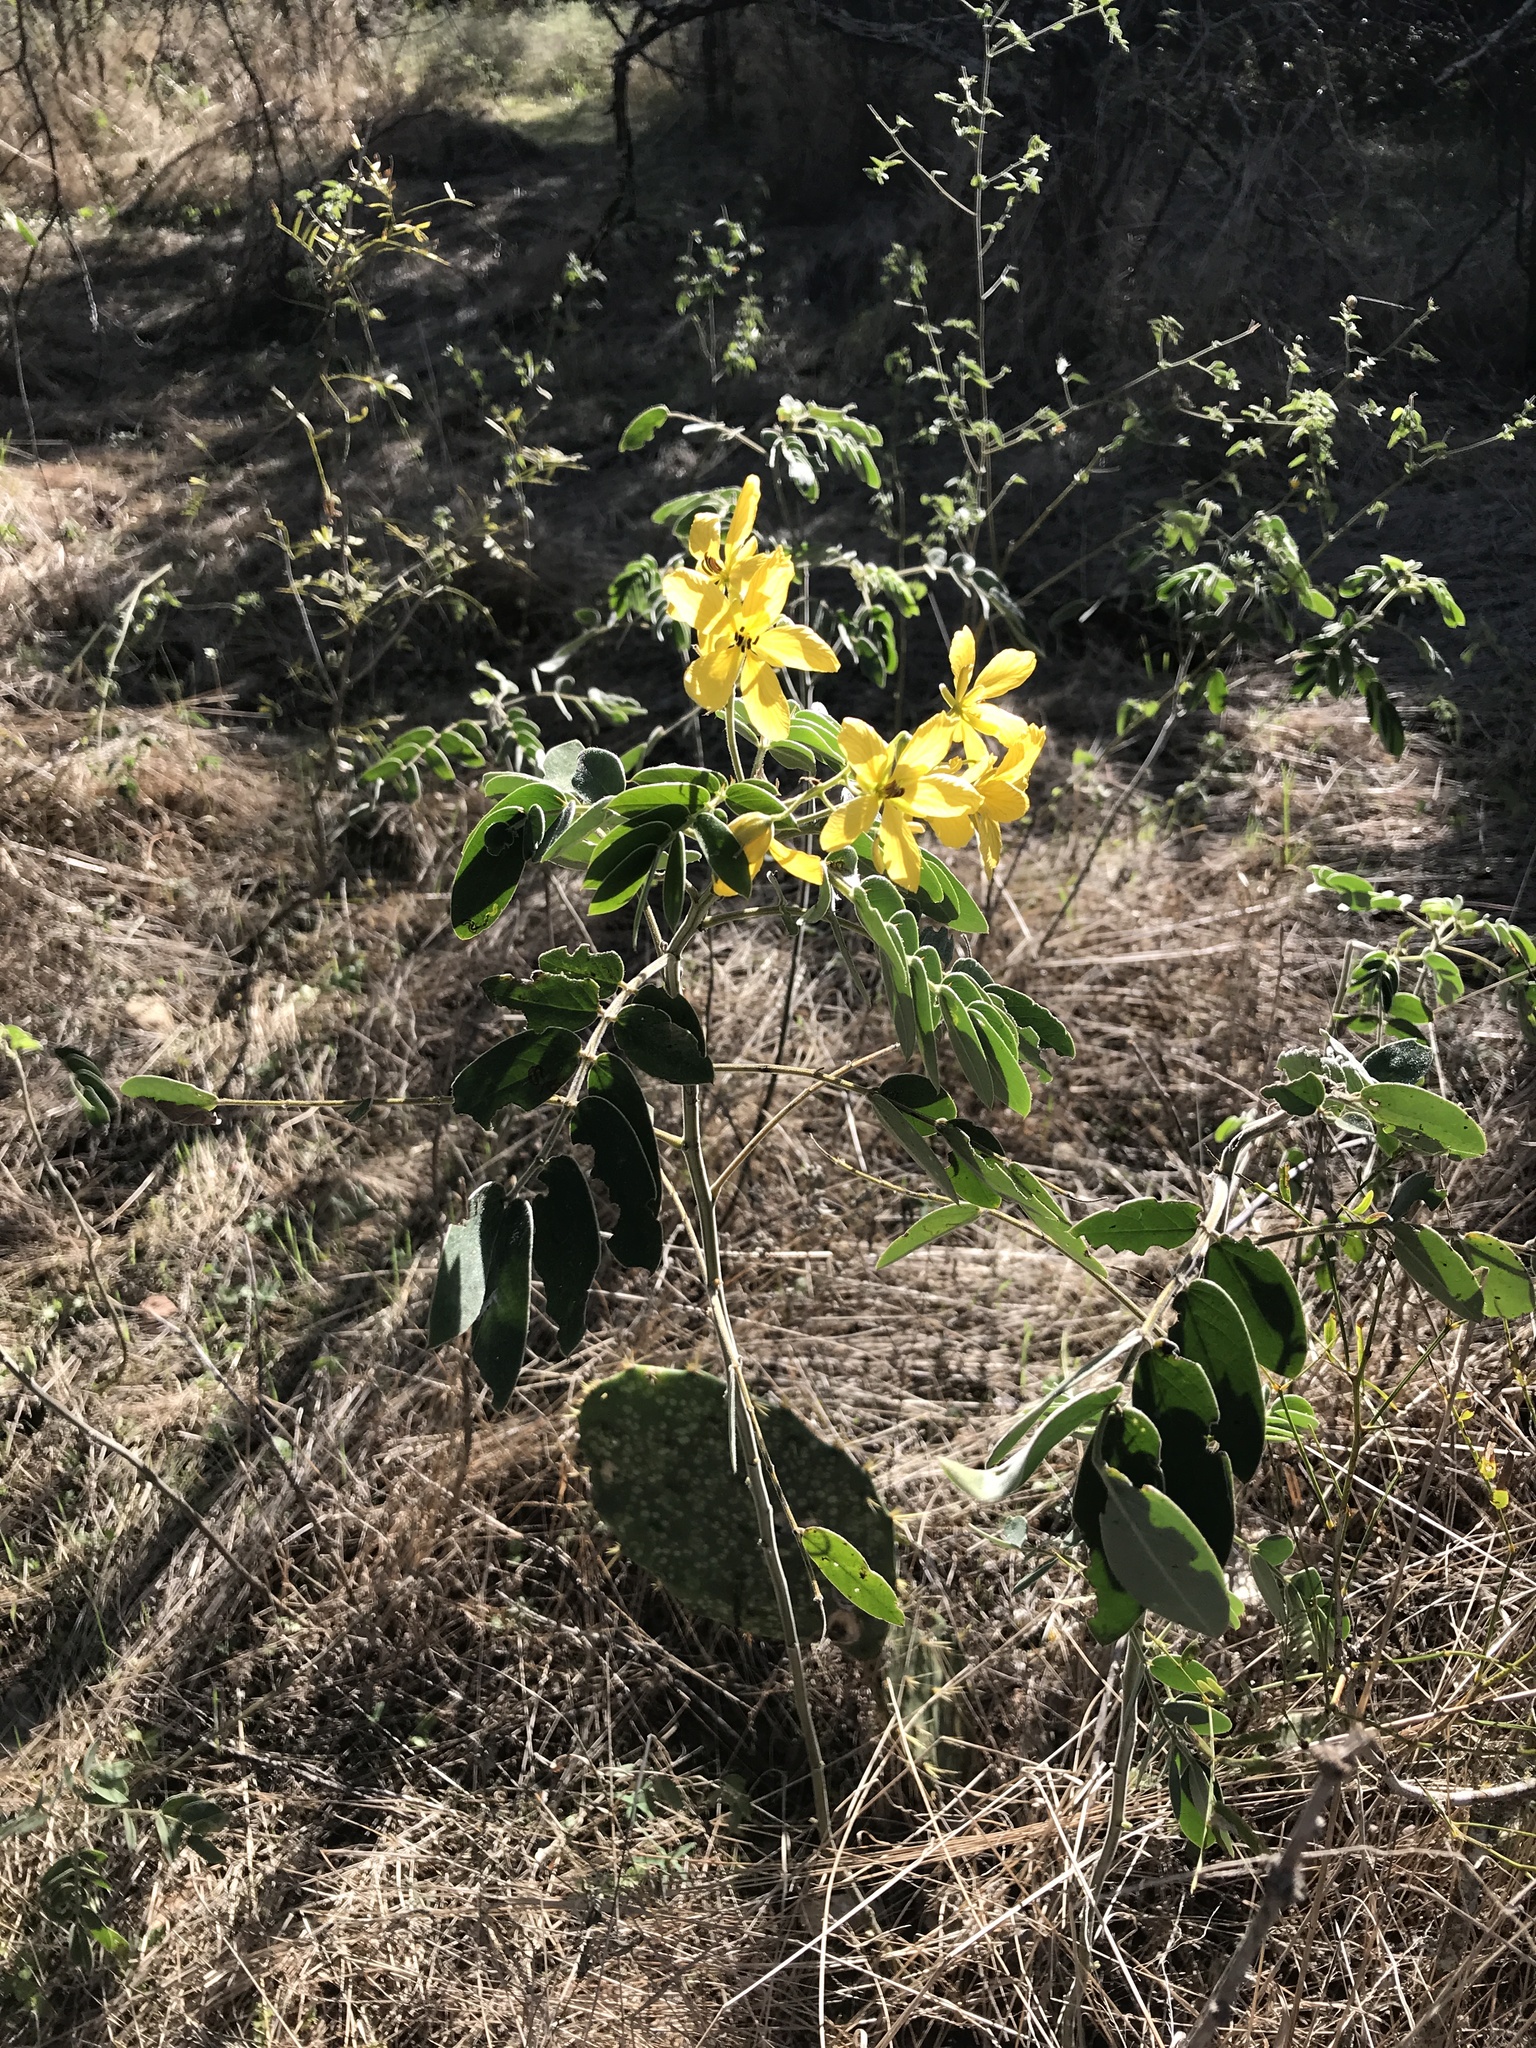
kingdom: Plantae
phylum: Tracheophyta
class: Magnoliopsida
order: Fabales
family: Fabaceae
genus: Senna
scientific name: Senna lindheimeriana
